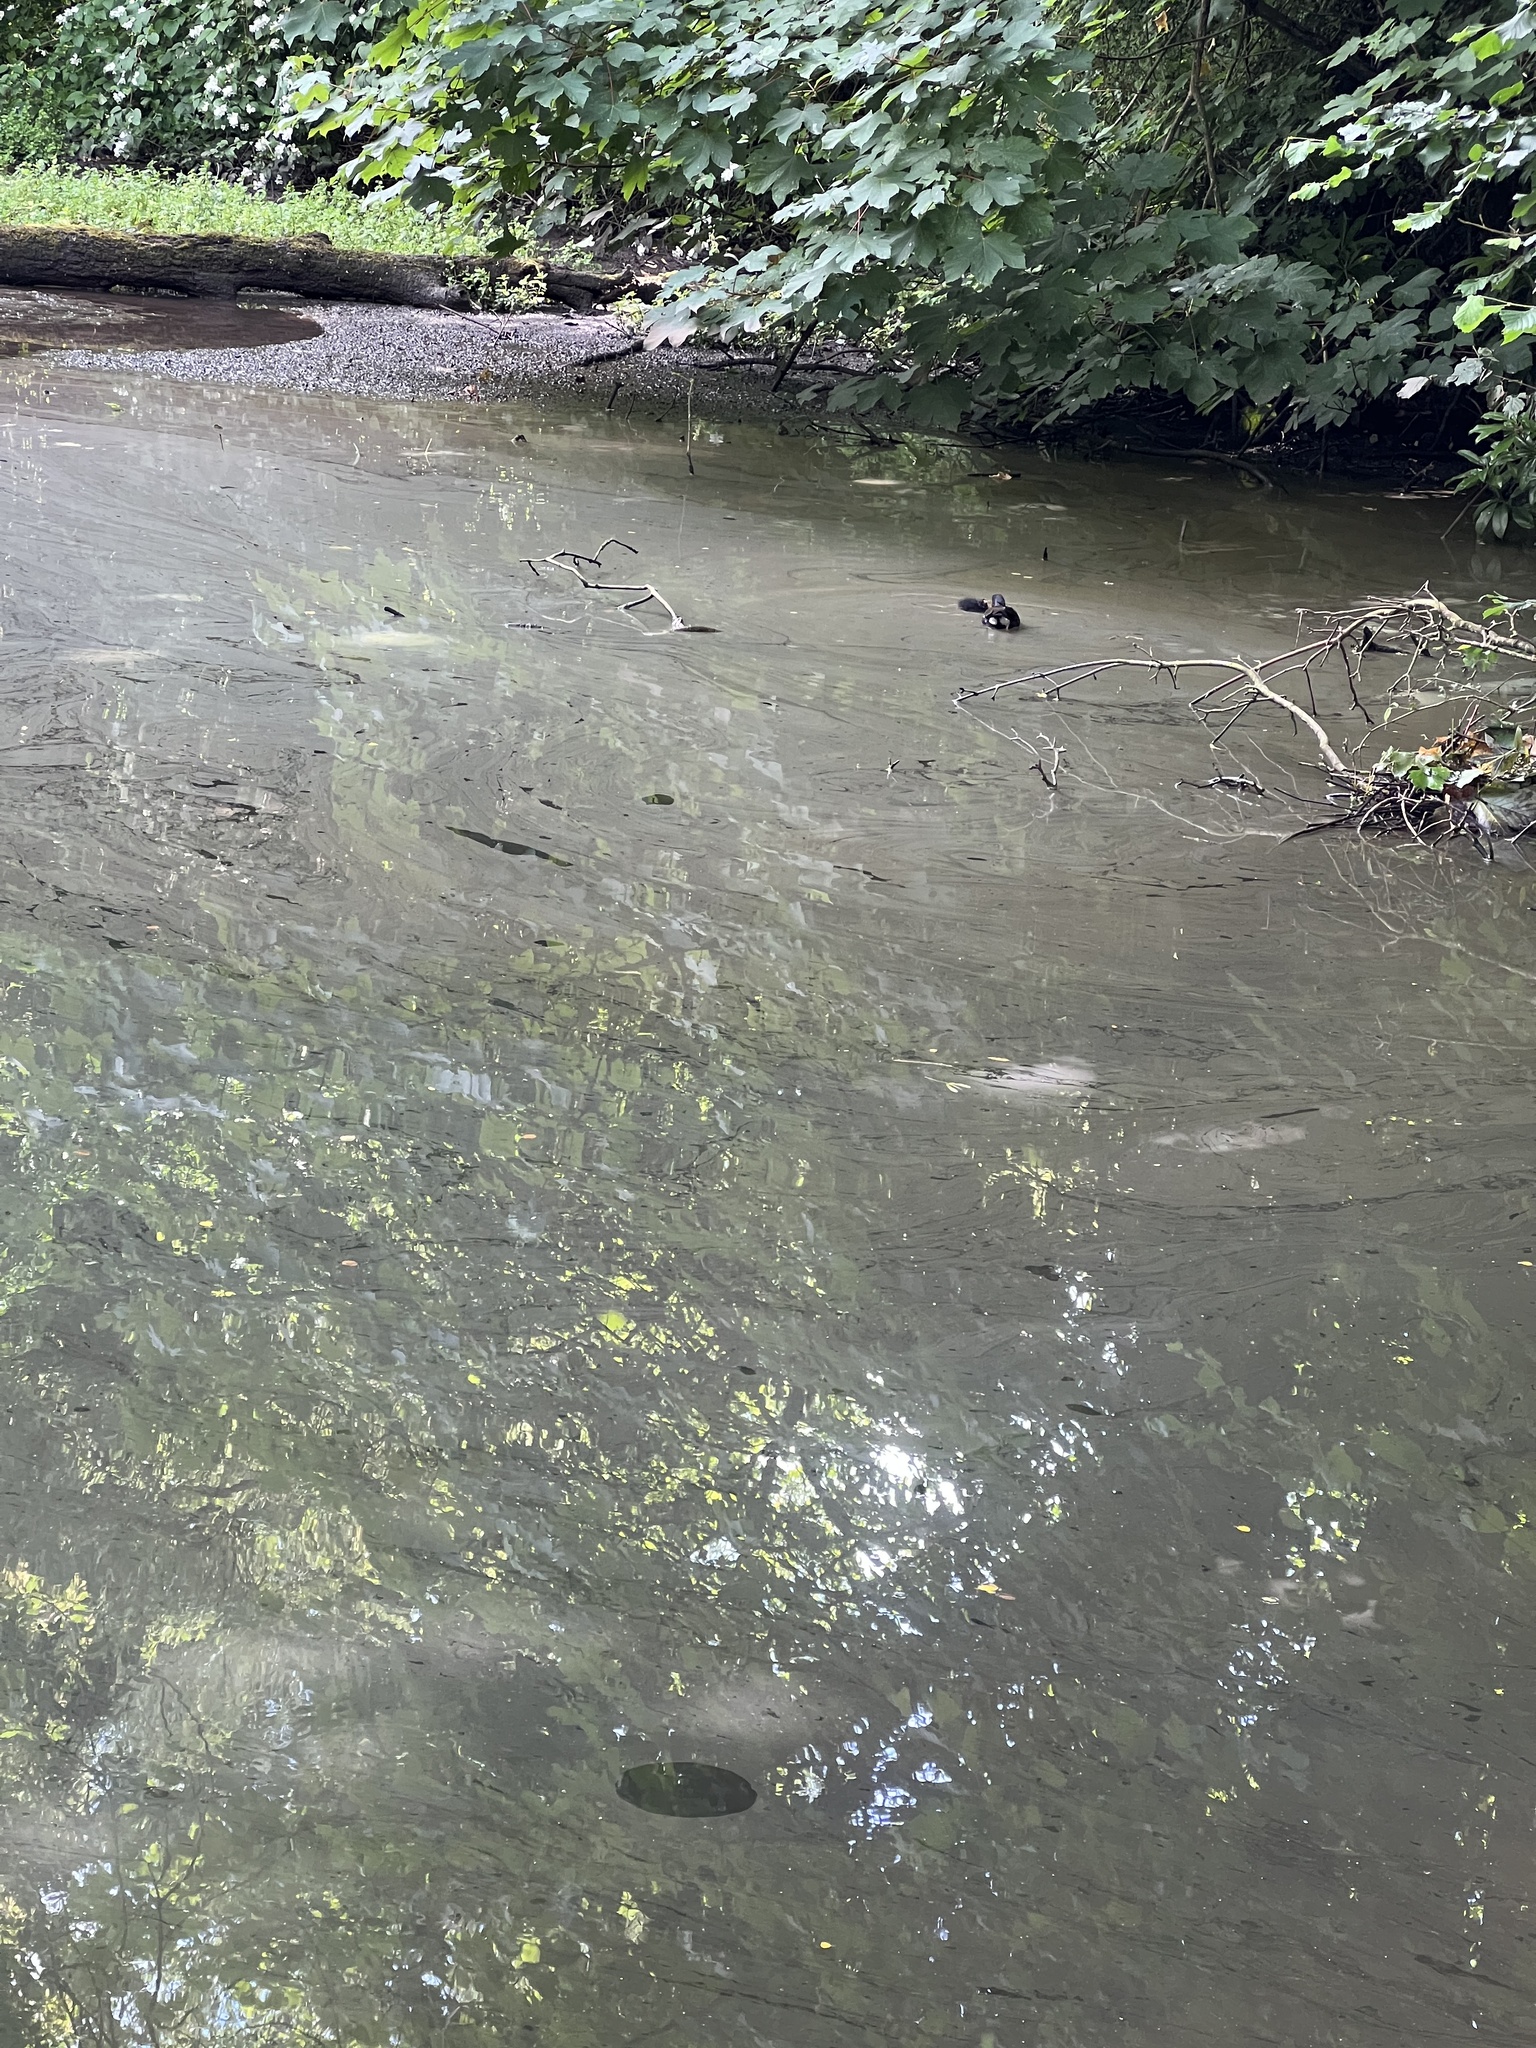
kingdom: Animalia
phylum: Chordata
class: Aves
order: Gruiformes
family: Rallidae
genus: Gallinula
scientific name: Gallinula chloropus
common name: Common moorhen
